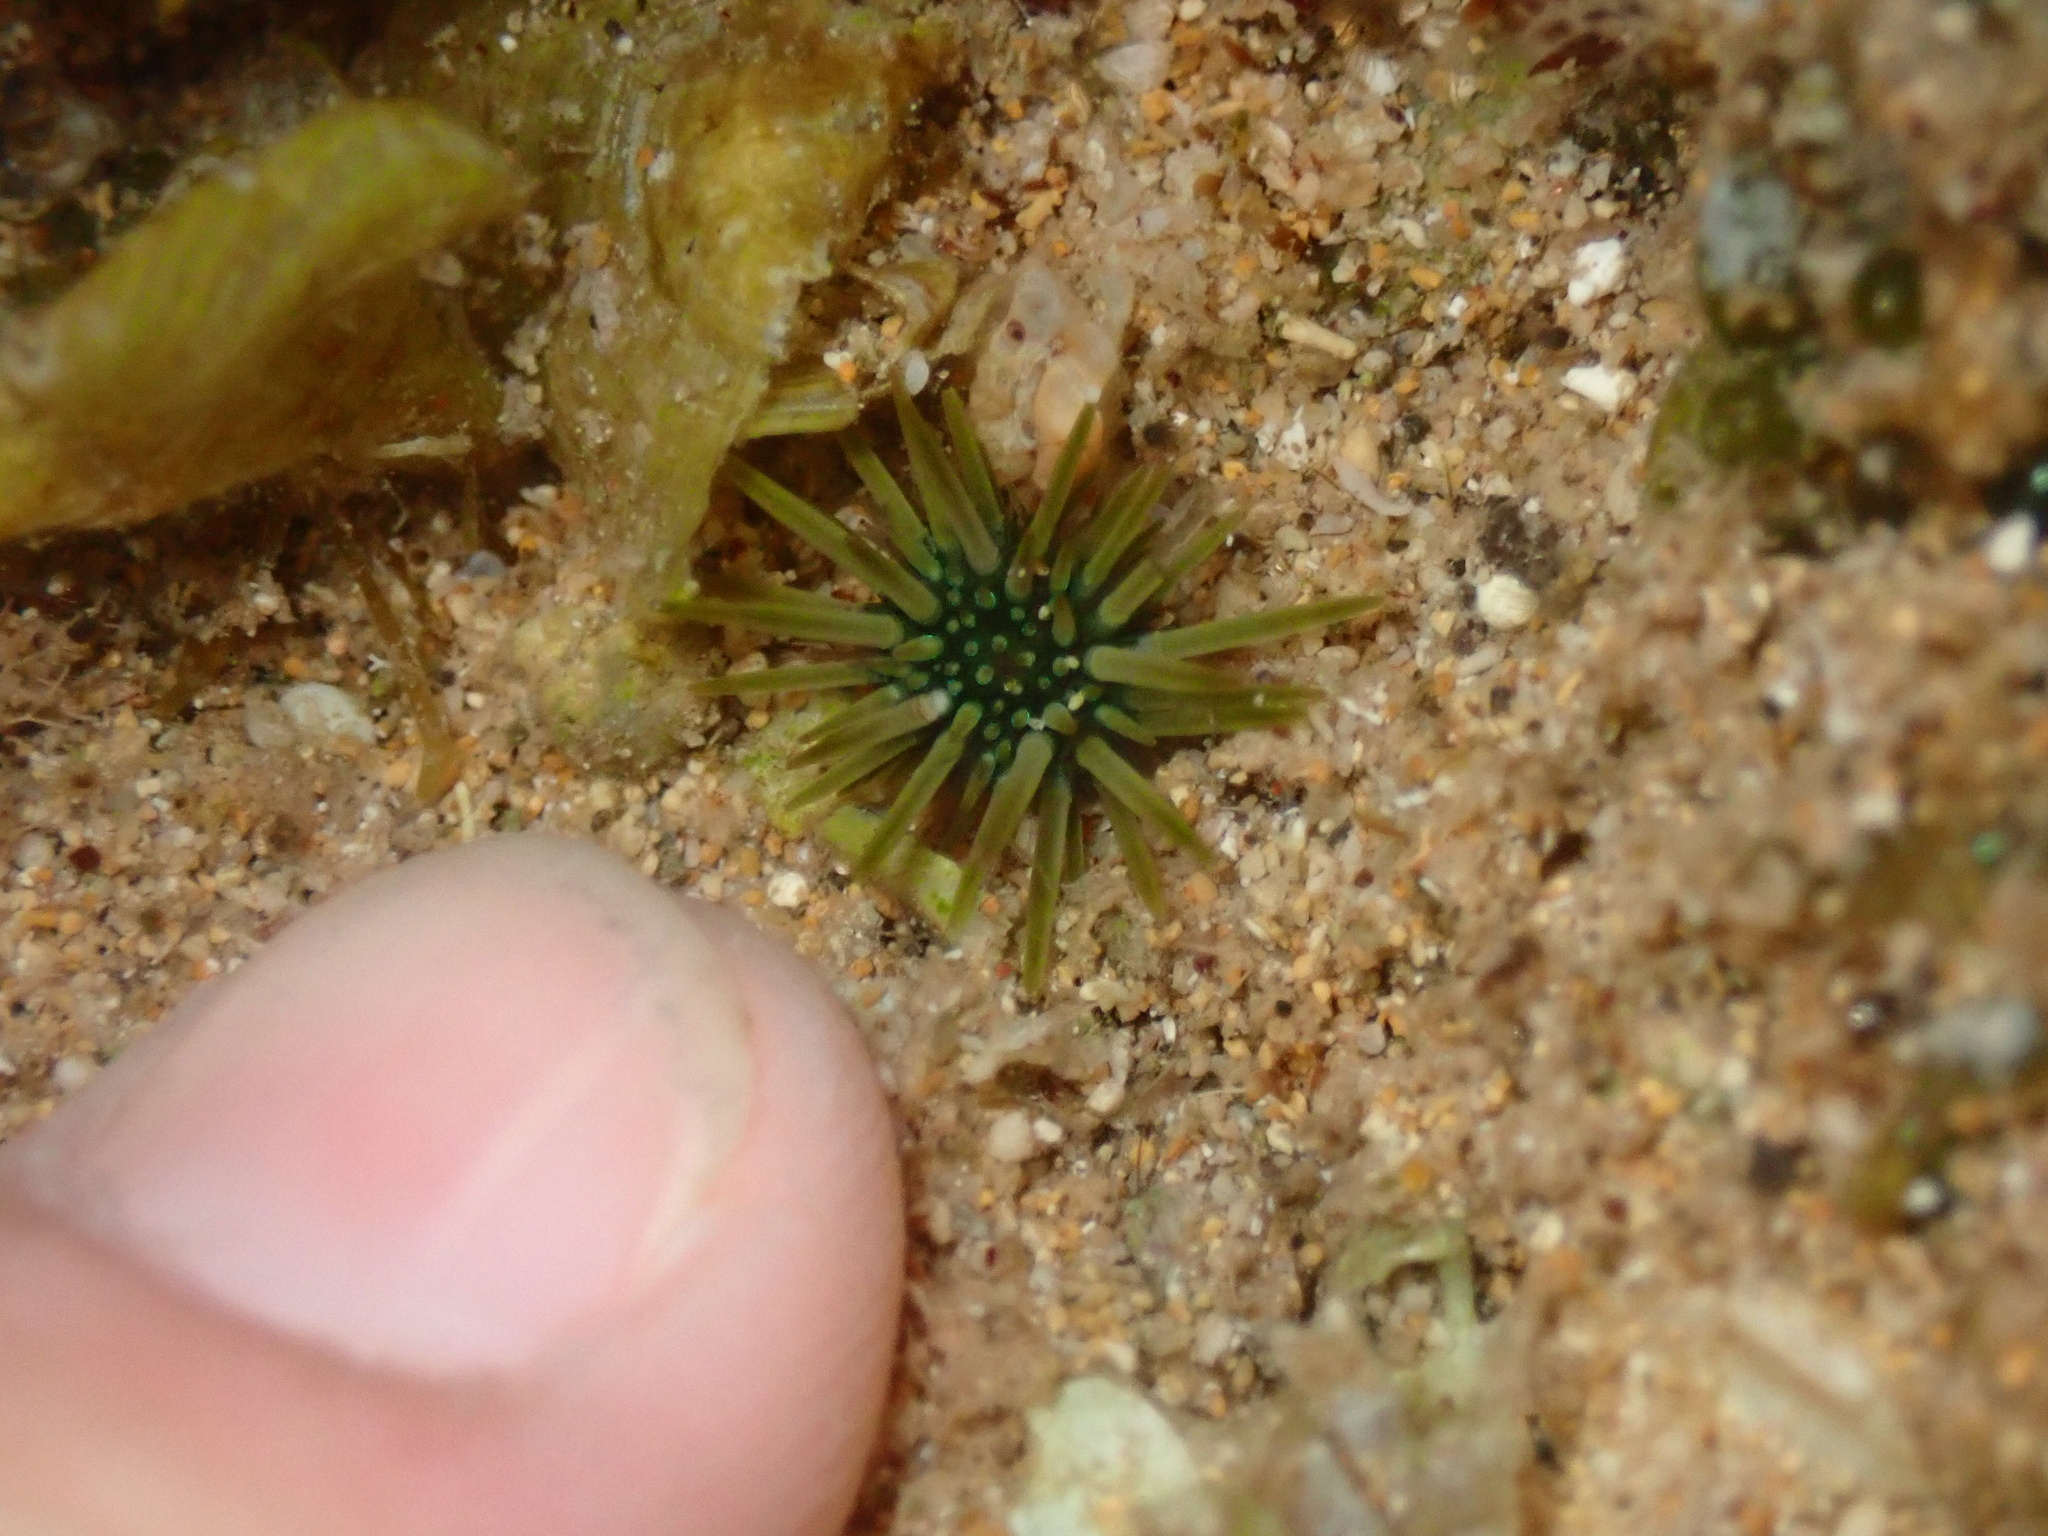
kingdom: Animalia
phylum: Echinodermata
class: Echinoidea
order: Camarodonta
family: Echinometridae
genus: Echinometra
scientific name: Echinometra mathaei
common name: Rock-boring urchin
